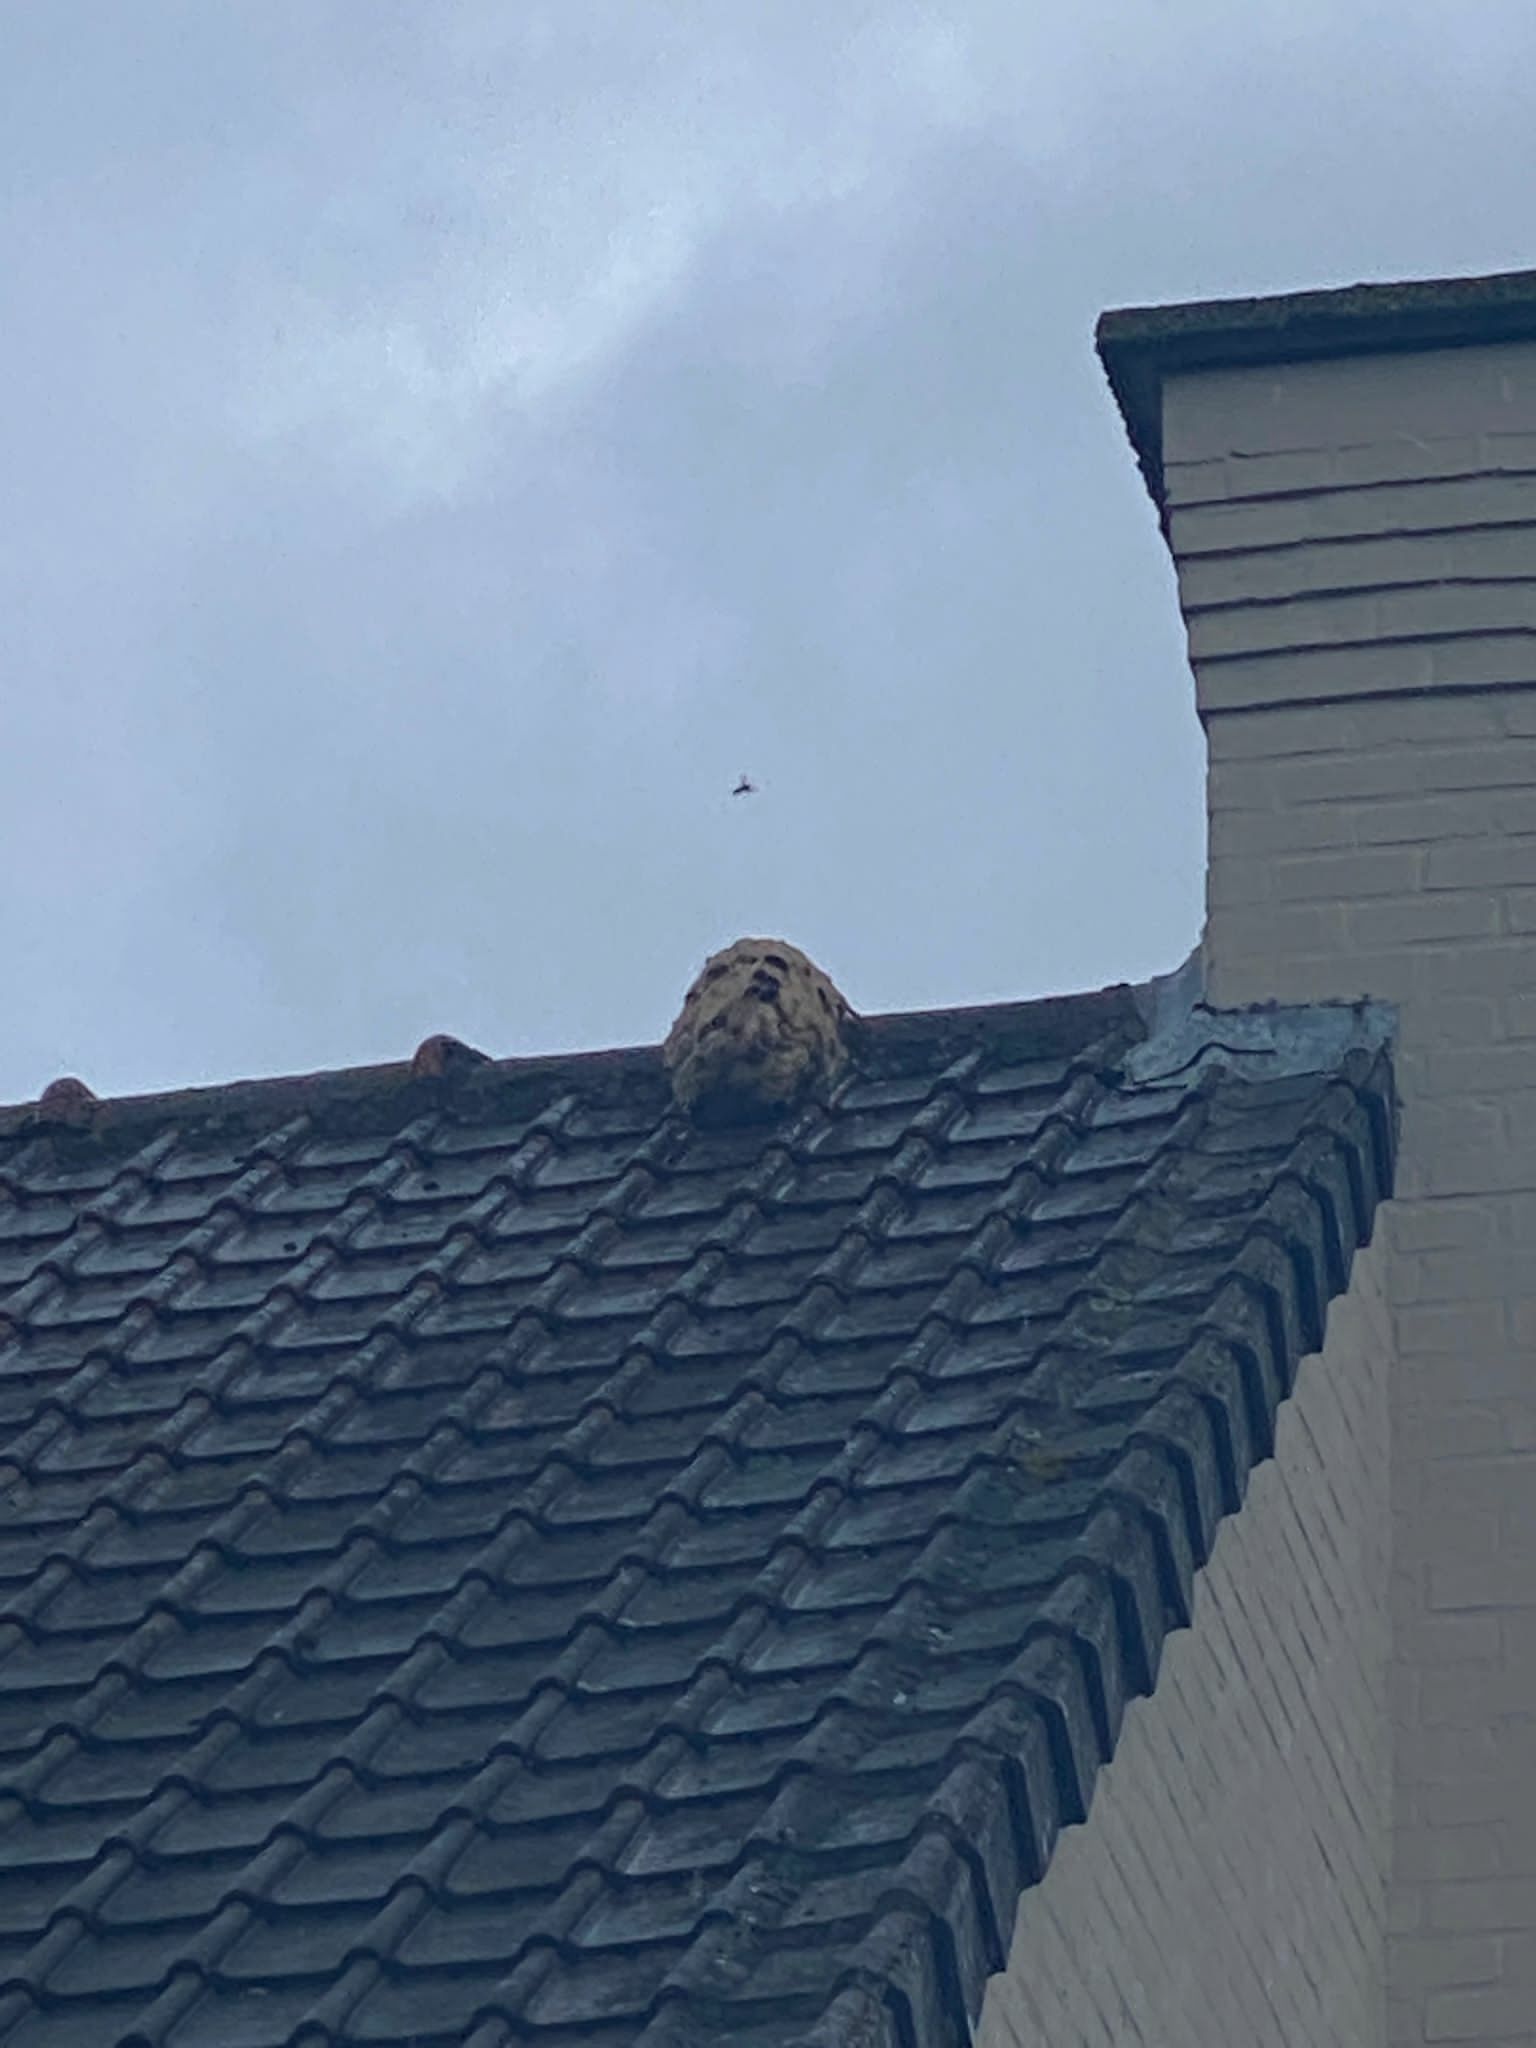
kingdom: Animalia
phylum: Arthropoda
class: Insecta
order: Hymenoptera
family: Vespidae
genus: Vespa
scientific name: Vespa velutina
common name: Asian hornet
